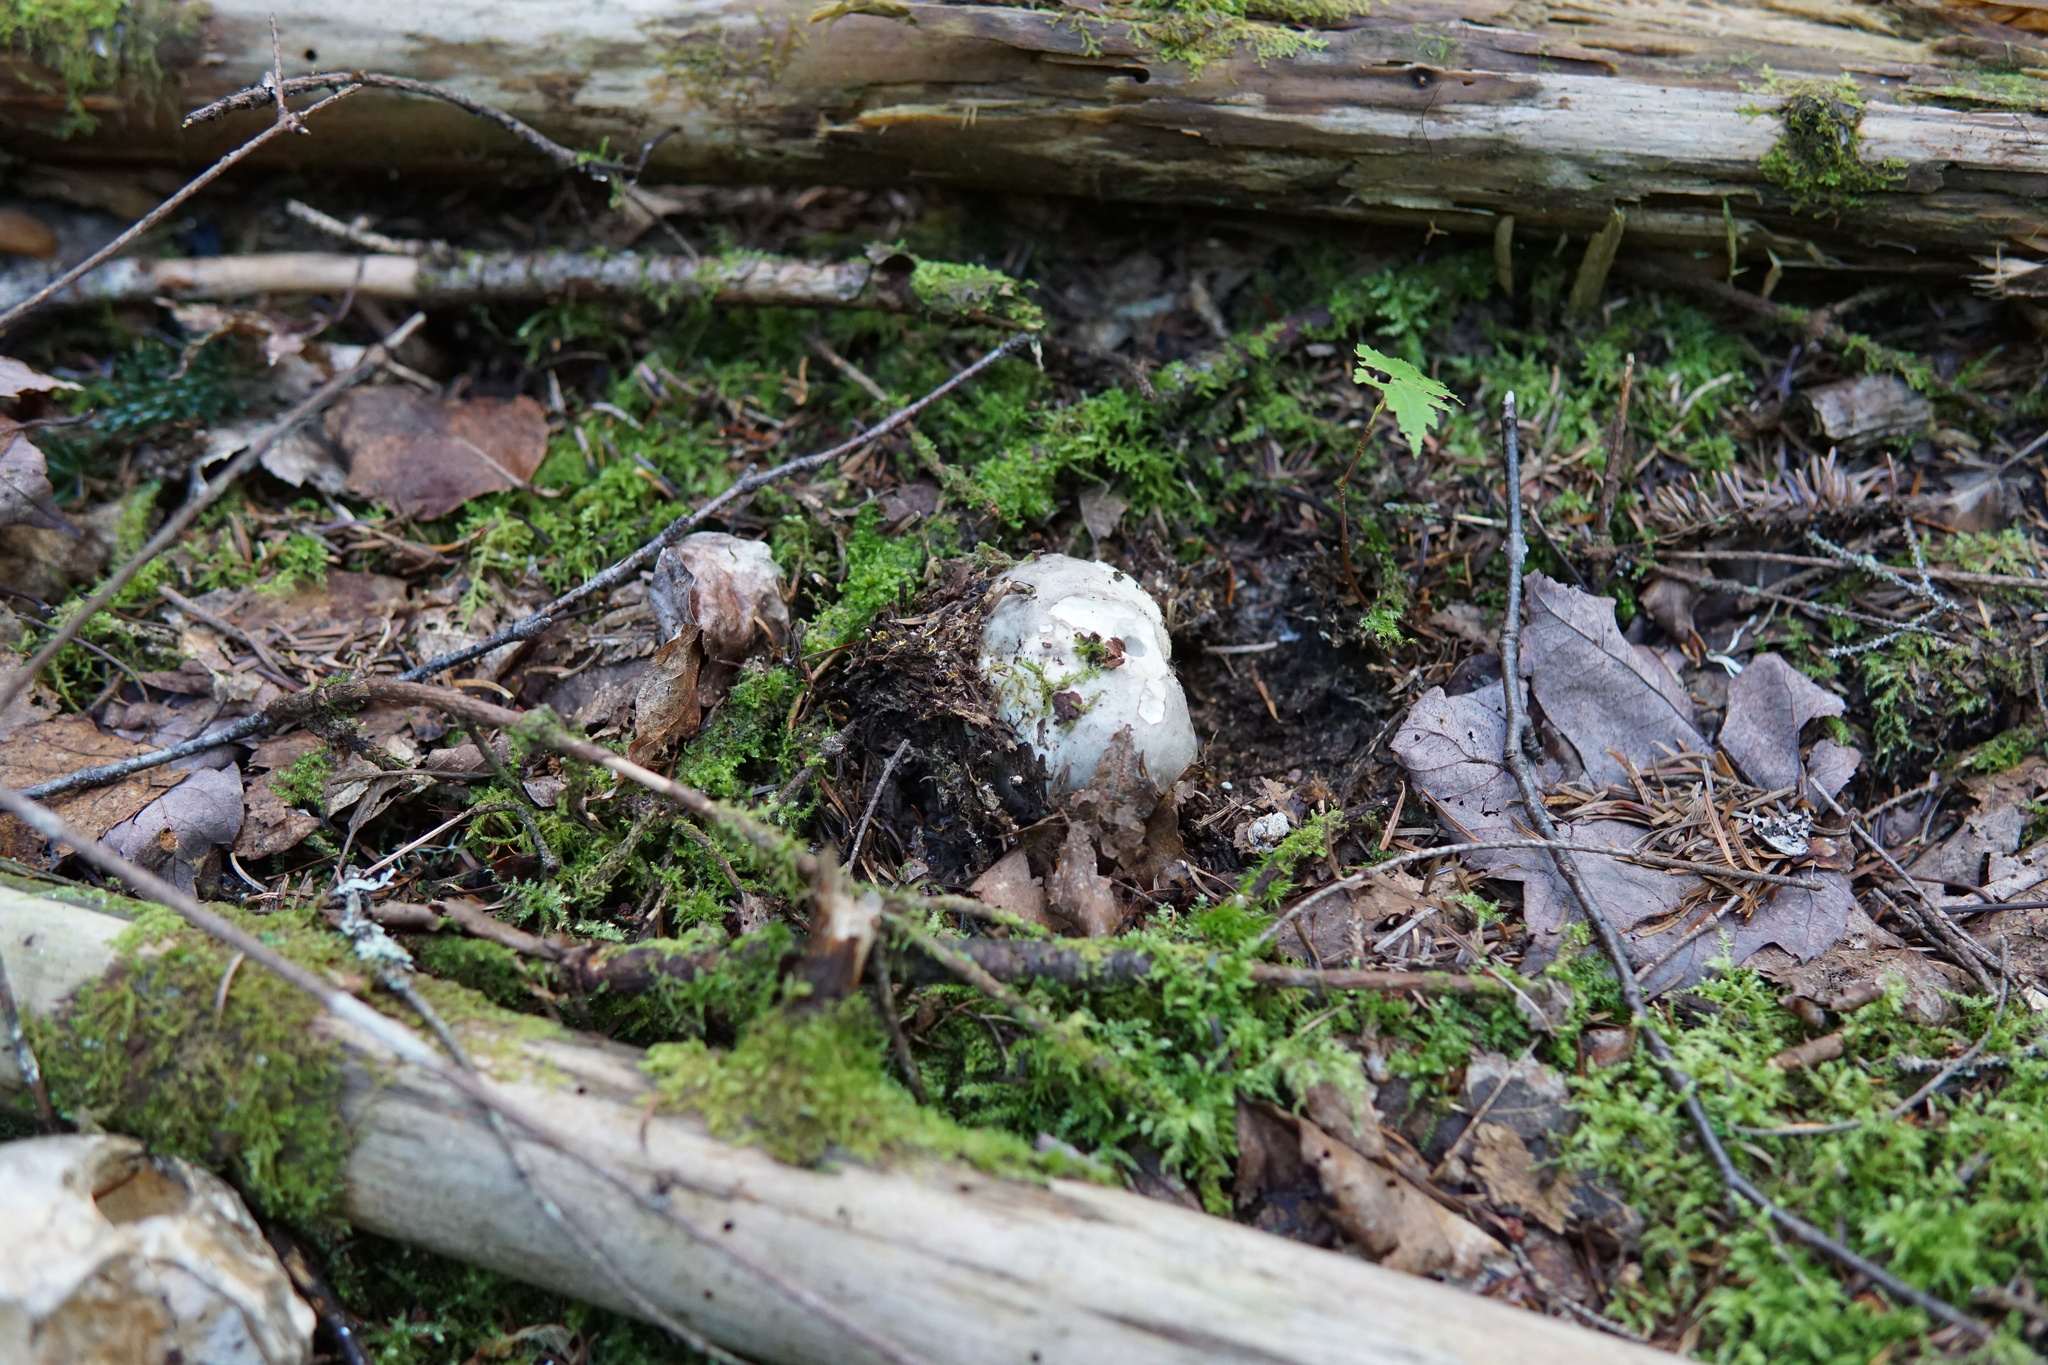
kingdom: Fungi
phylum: Basidiomycota
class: Agaricomycetes
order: Agaricales
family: Biannulariaceae
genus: Catathelasma
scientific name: Catathelasma ventricosum
